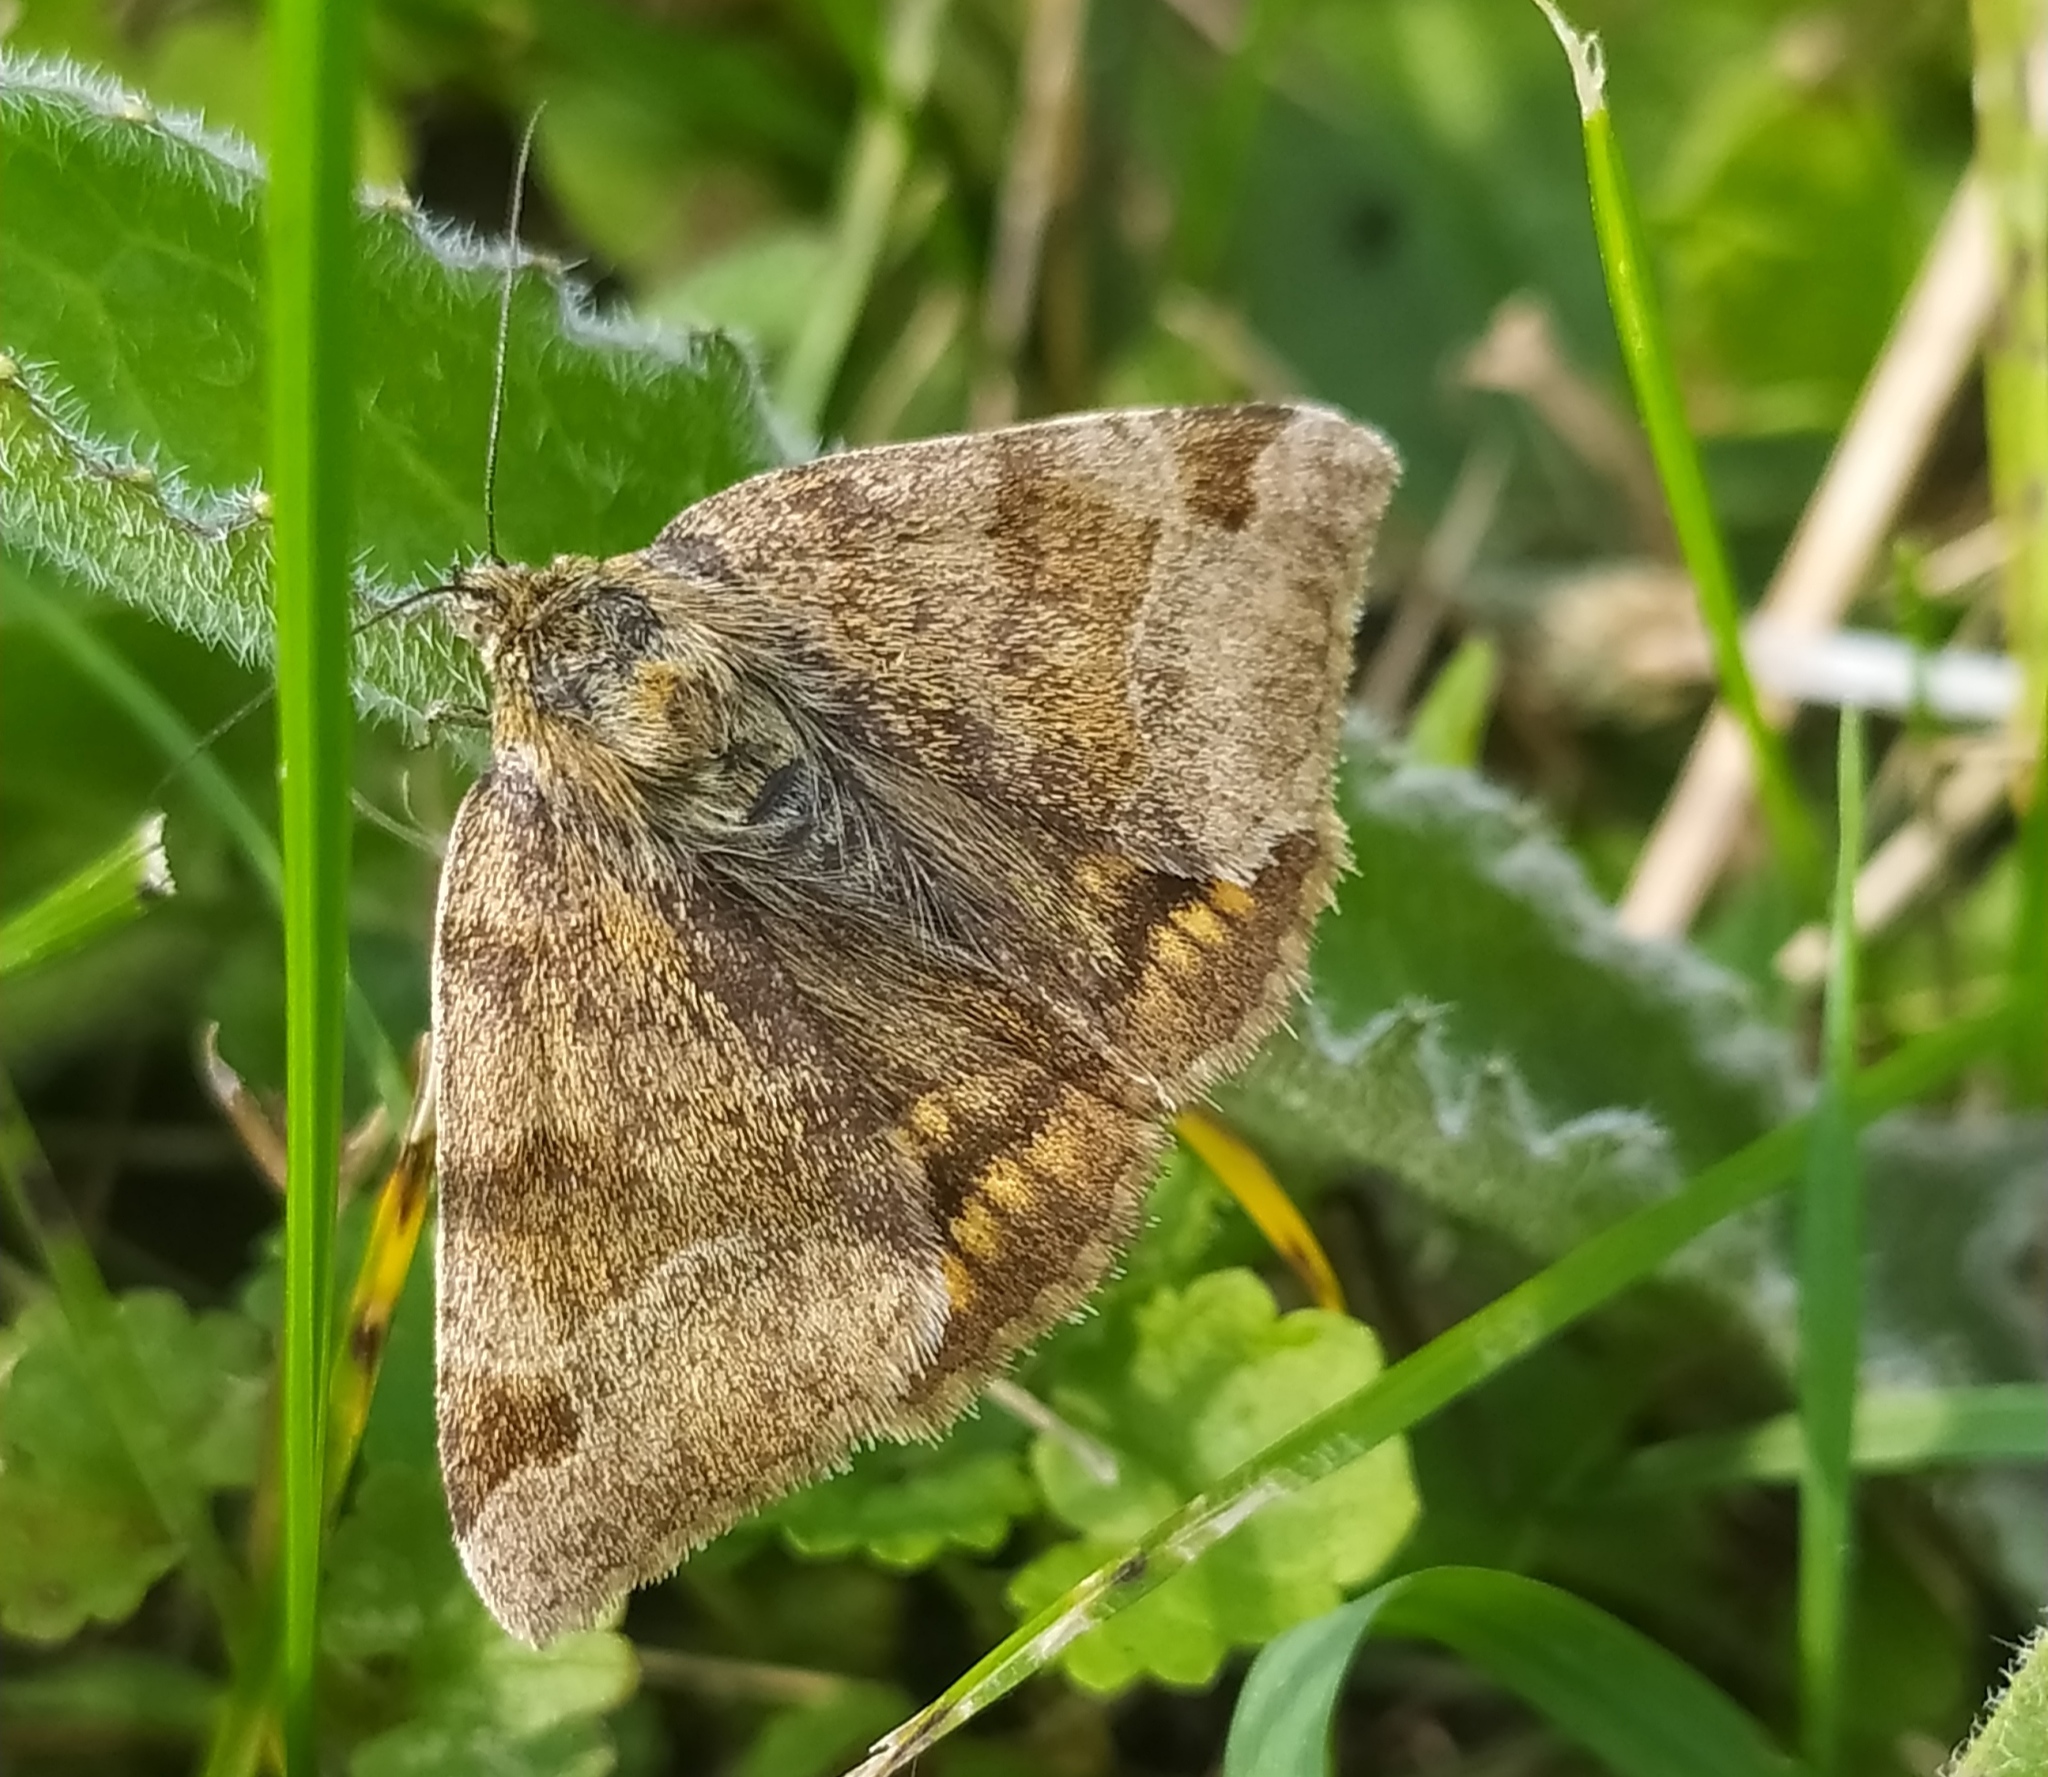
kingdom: Animalia
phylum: Arthropoda
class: Insecta
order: Lepidoptera
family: Erebidae
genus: Euclidia
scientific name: Euclidia glyphica
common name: Burnet companion
